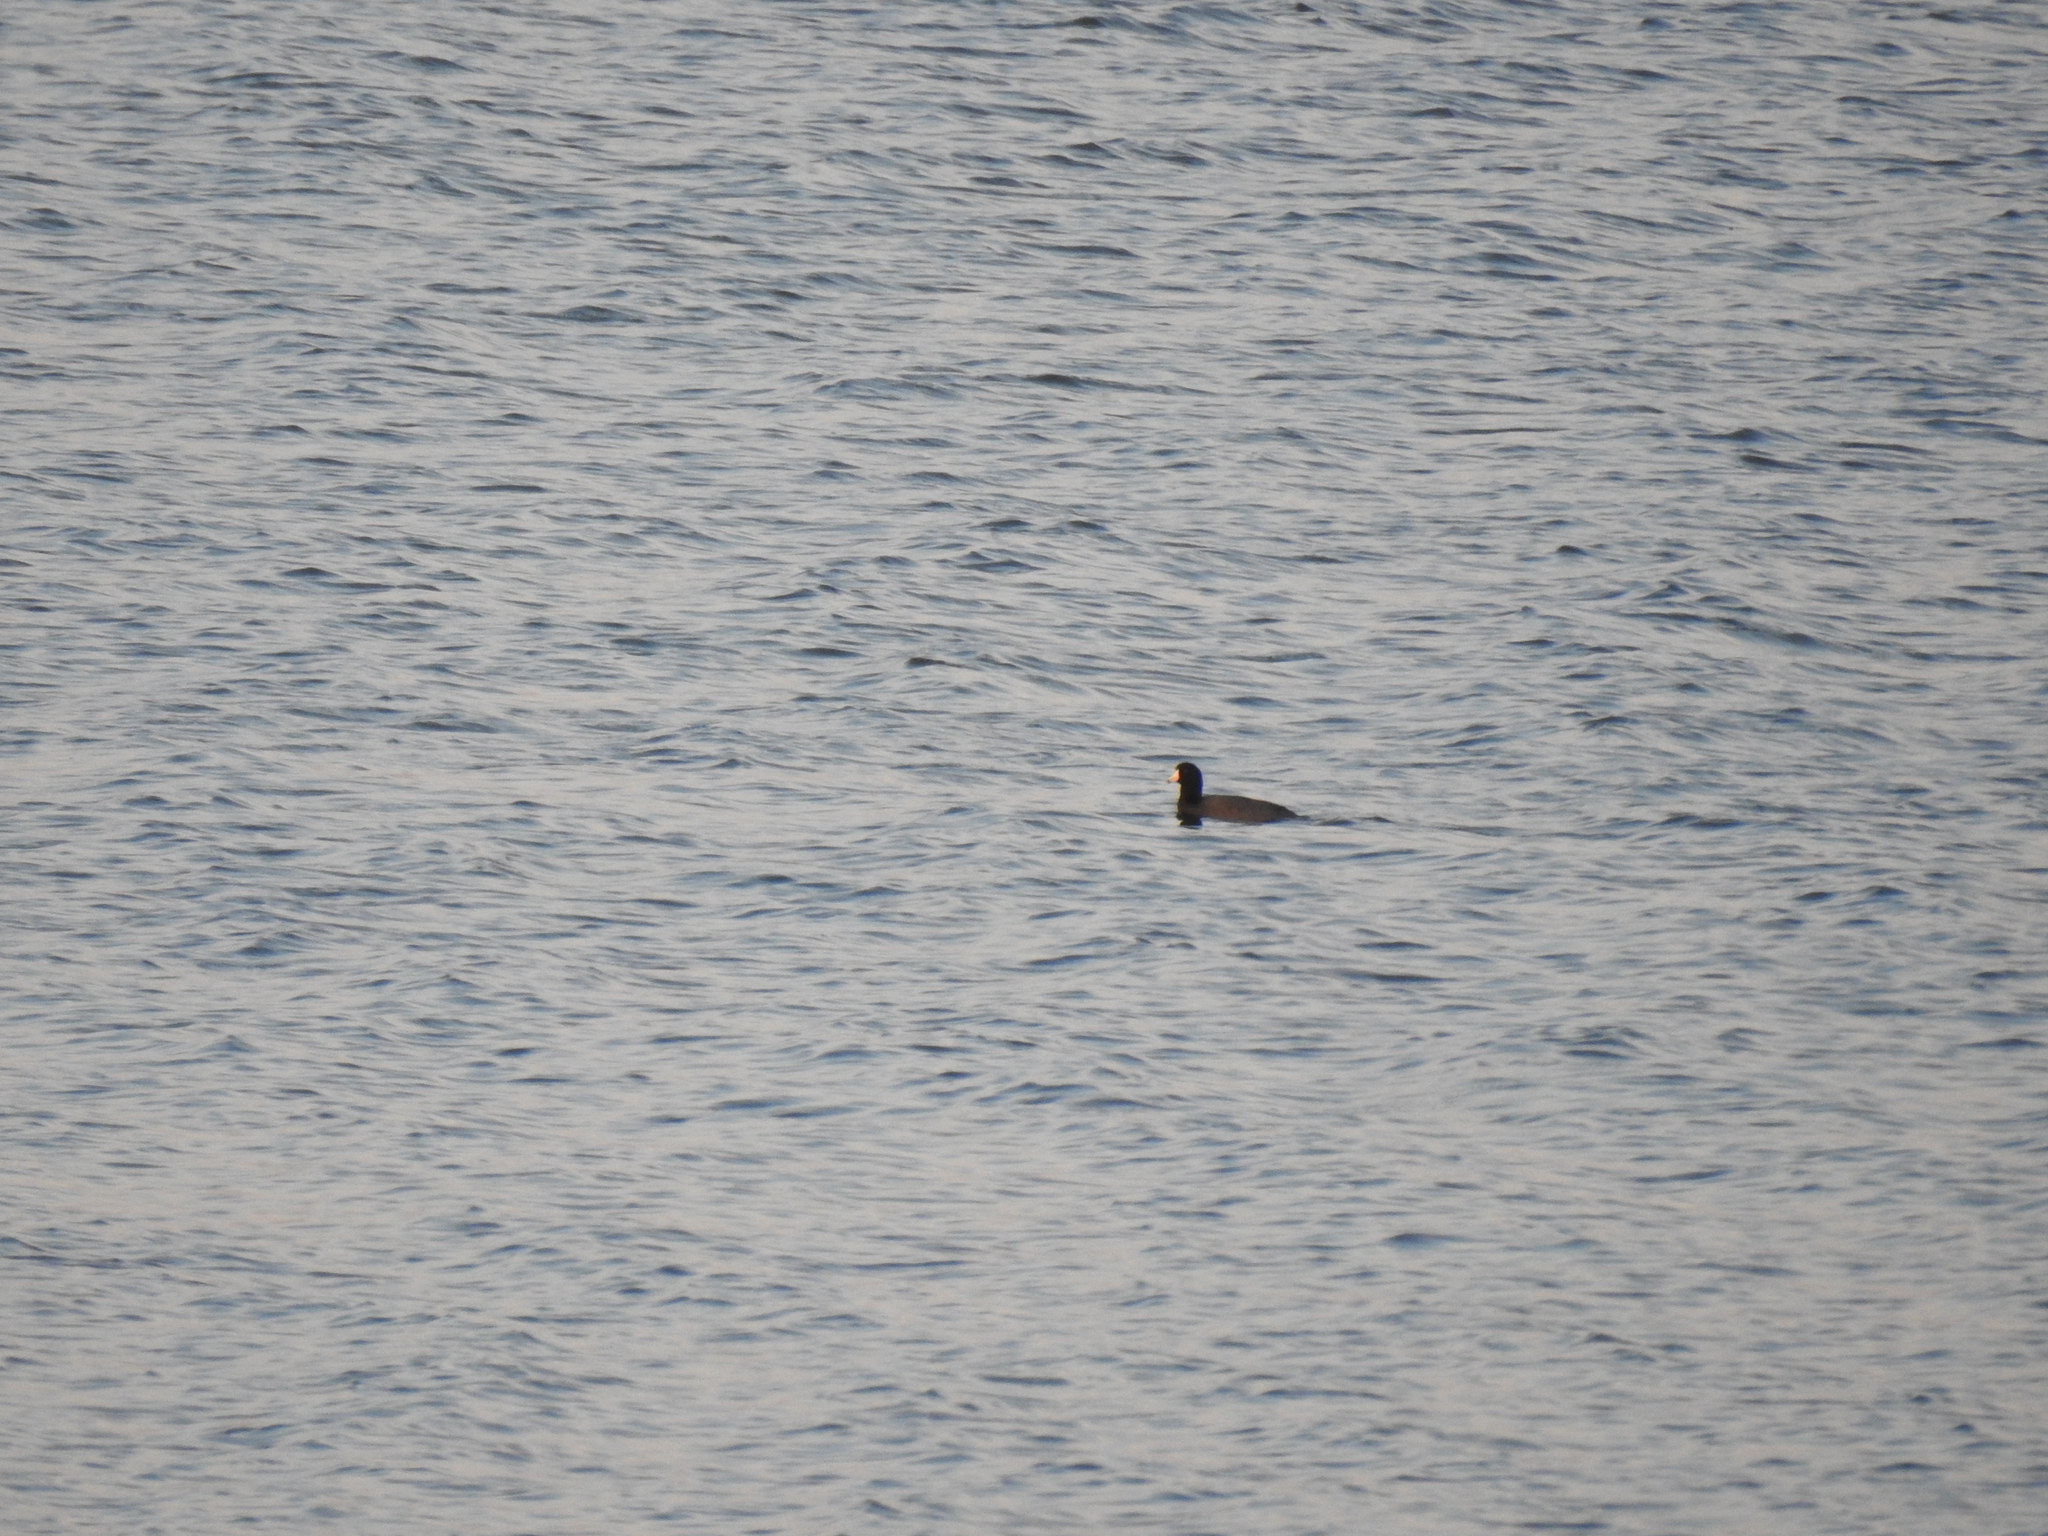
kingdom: Animalia
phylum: Chordata
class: Aves
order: Gruiformes
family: Rallidae
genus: Fulica
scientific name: Fulica americana
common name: American coot
